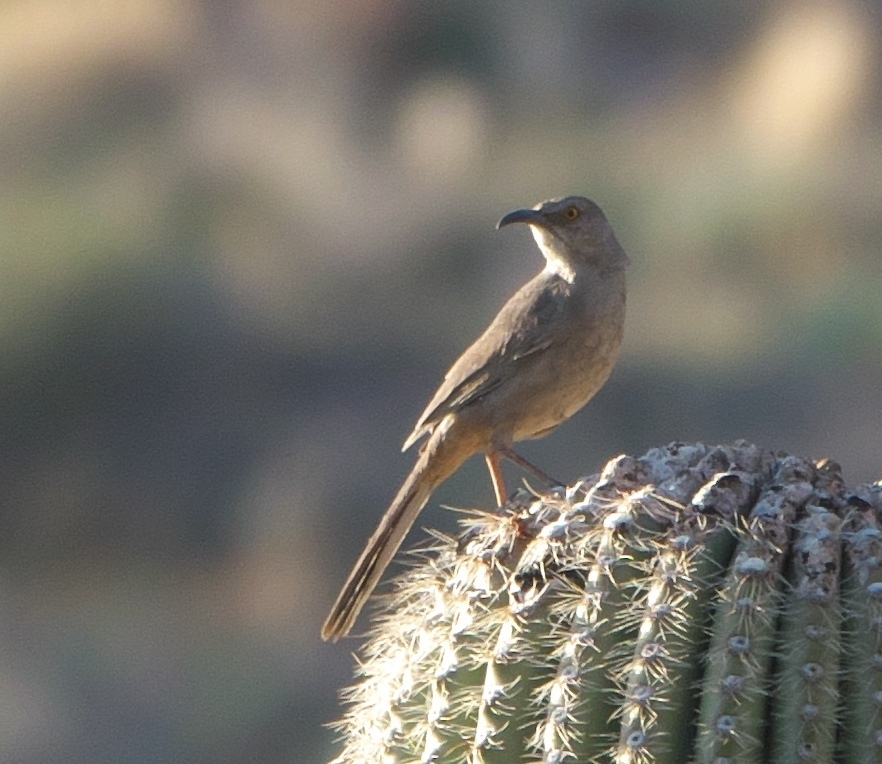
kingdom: Animalia
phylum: Chordata
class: Aves
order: Passeriformes
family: Mimidae
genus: Toxostoma
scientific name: Toxostoma curvirostre
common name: Curve-billed thrasher
